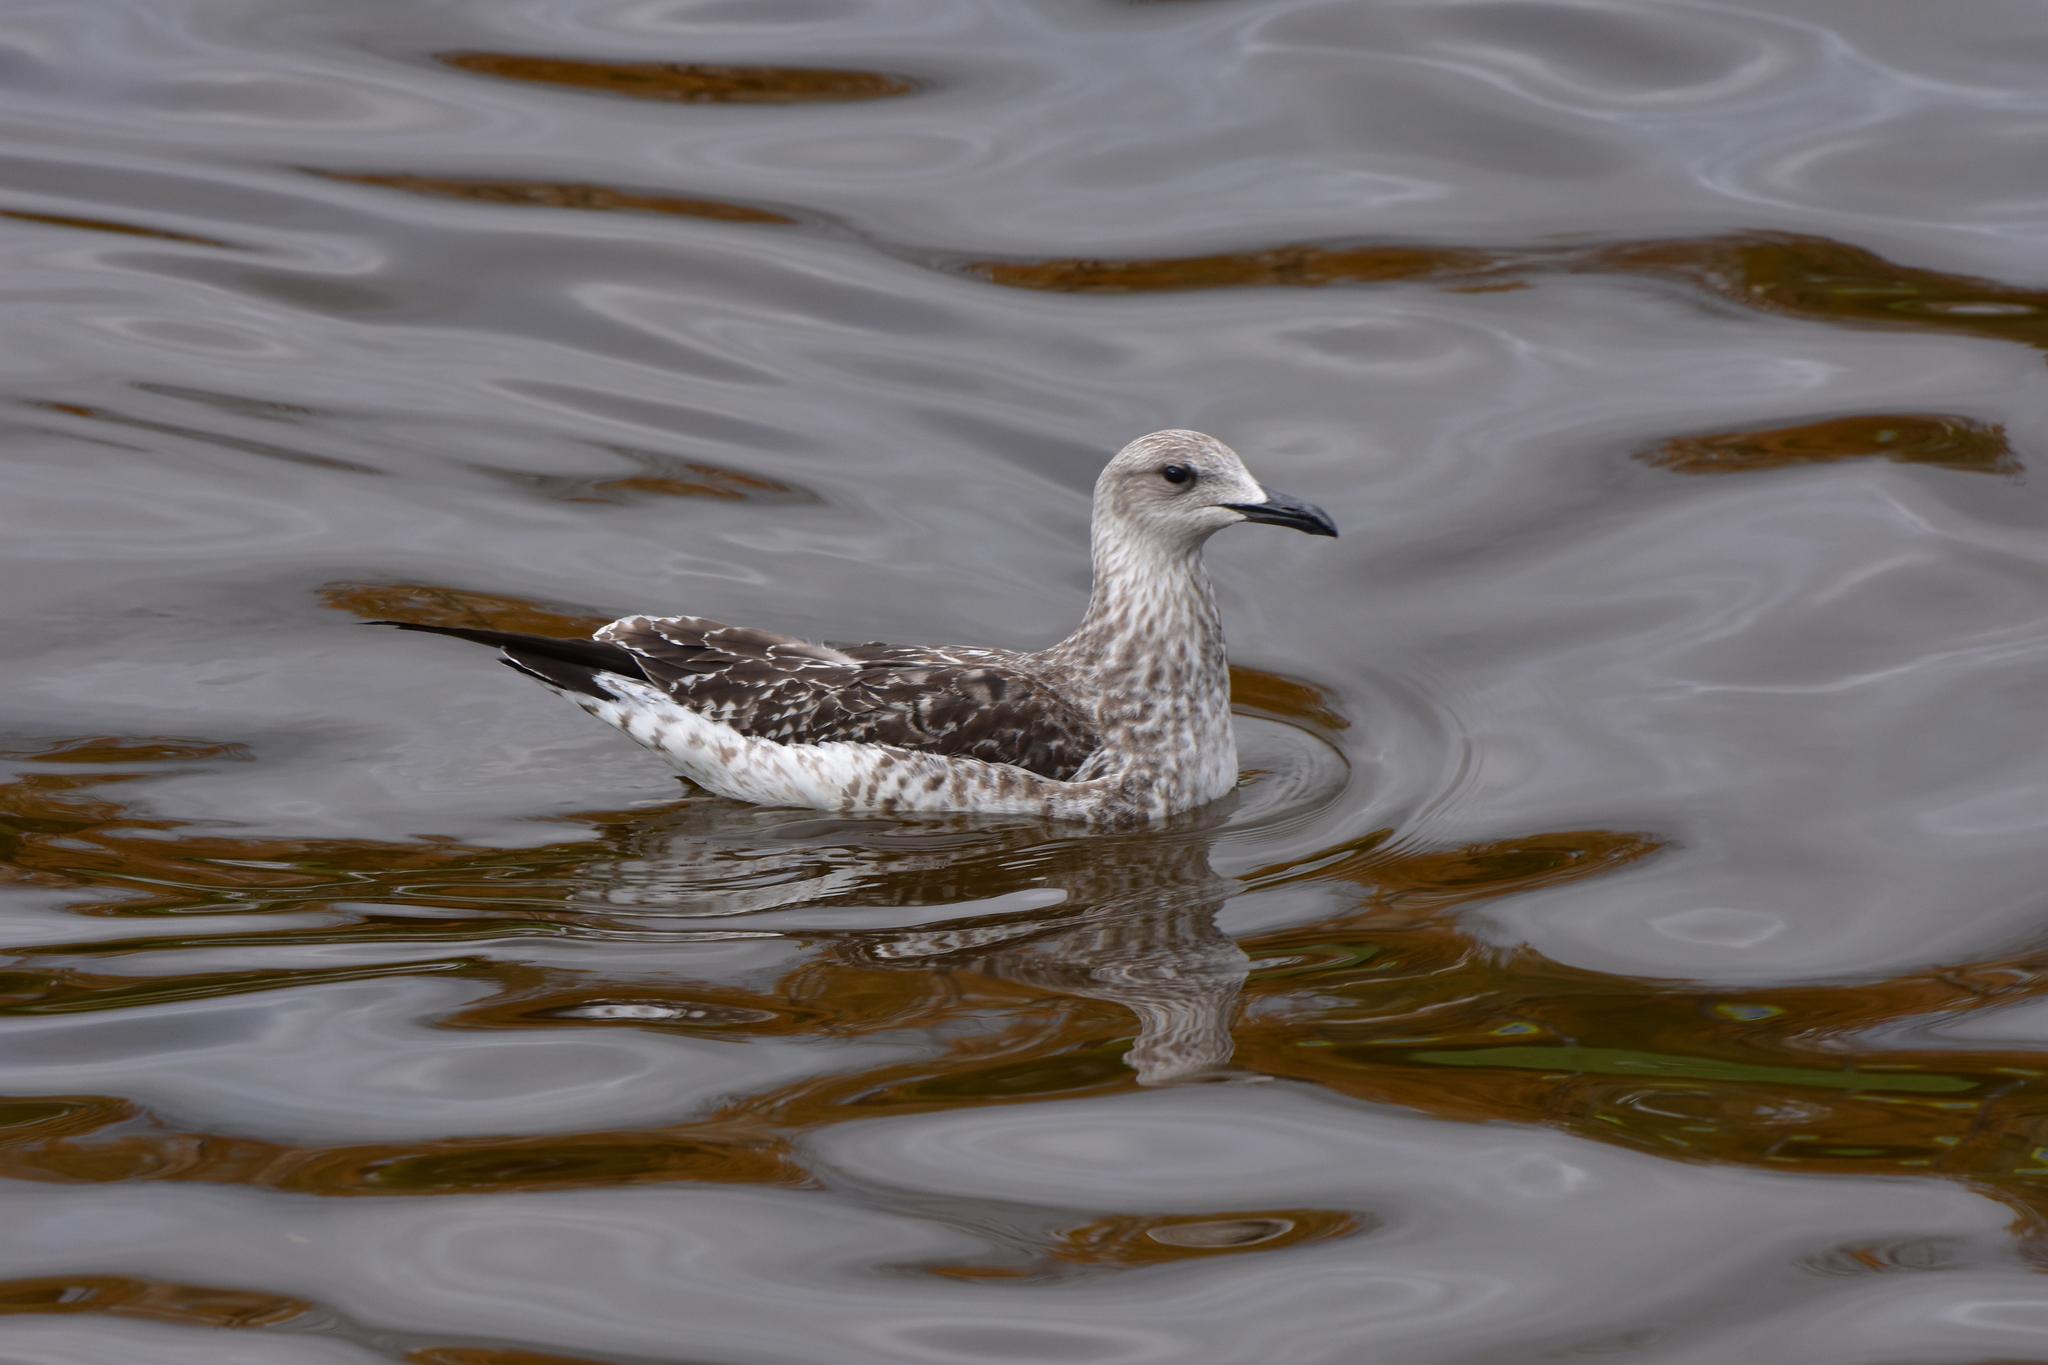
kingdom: Animalia
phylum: Chordata
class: Aves
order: Charadriiformes
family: Laridae
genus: Larus
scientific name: Larus fuscus
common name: Lesser black-backed gull
